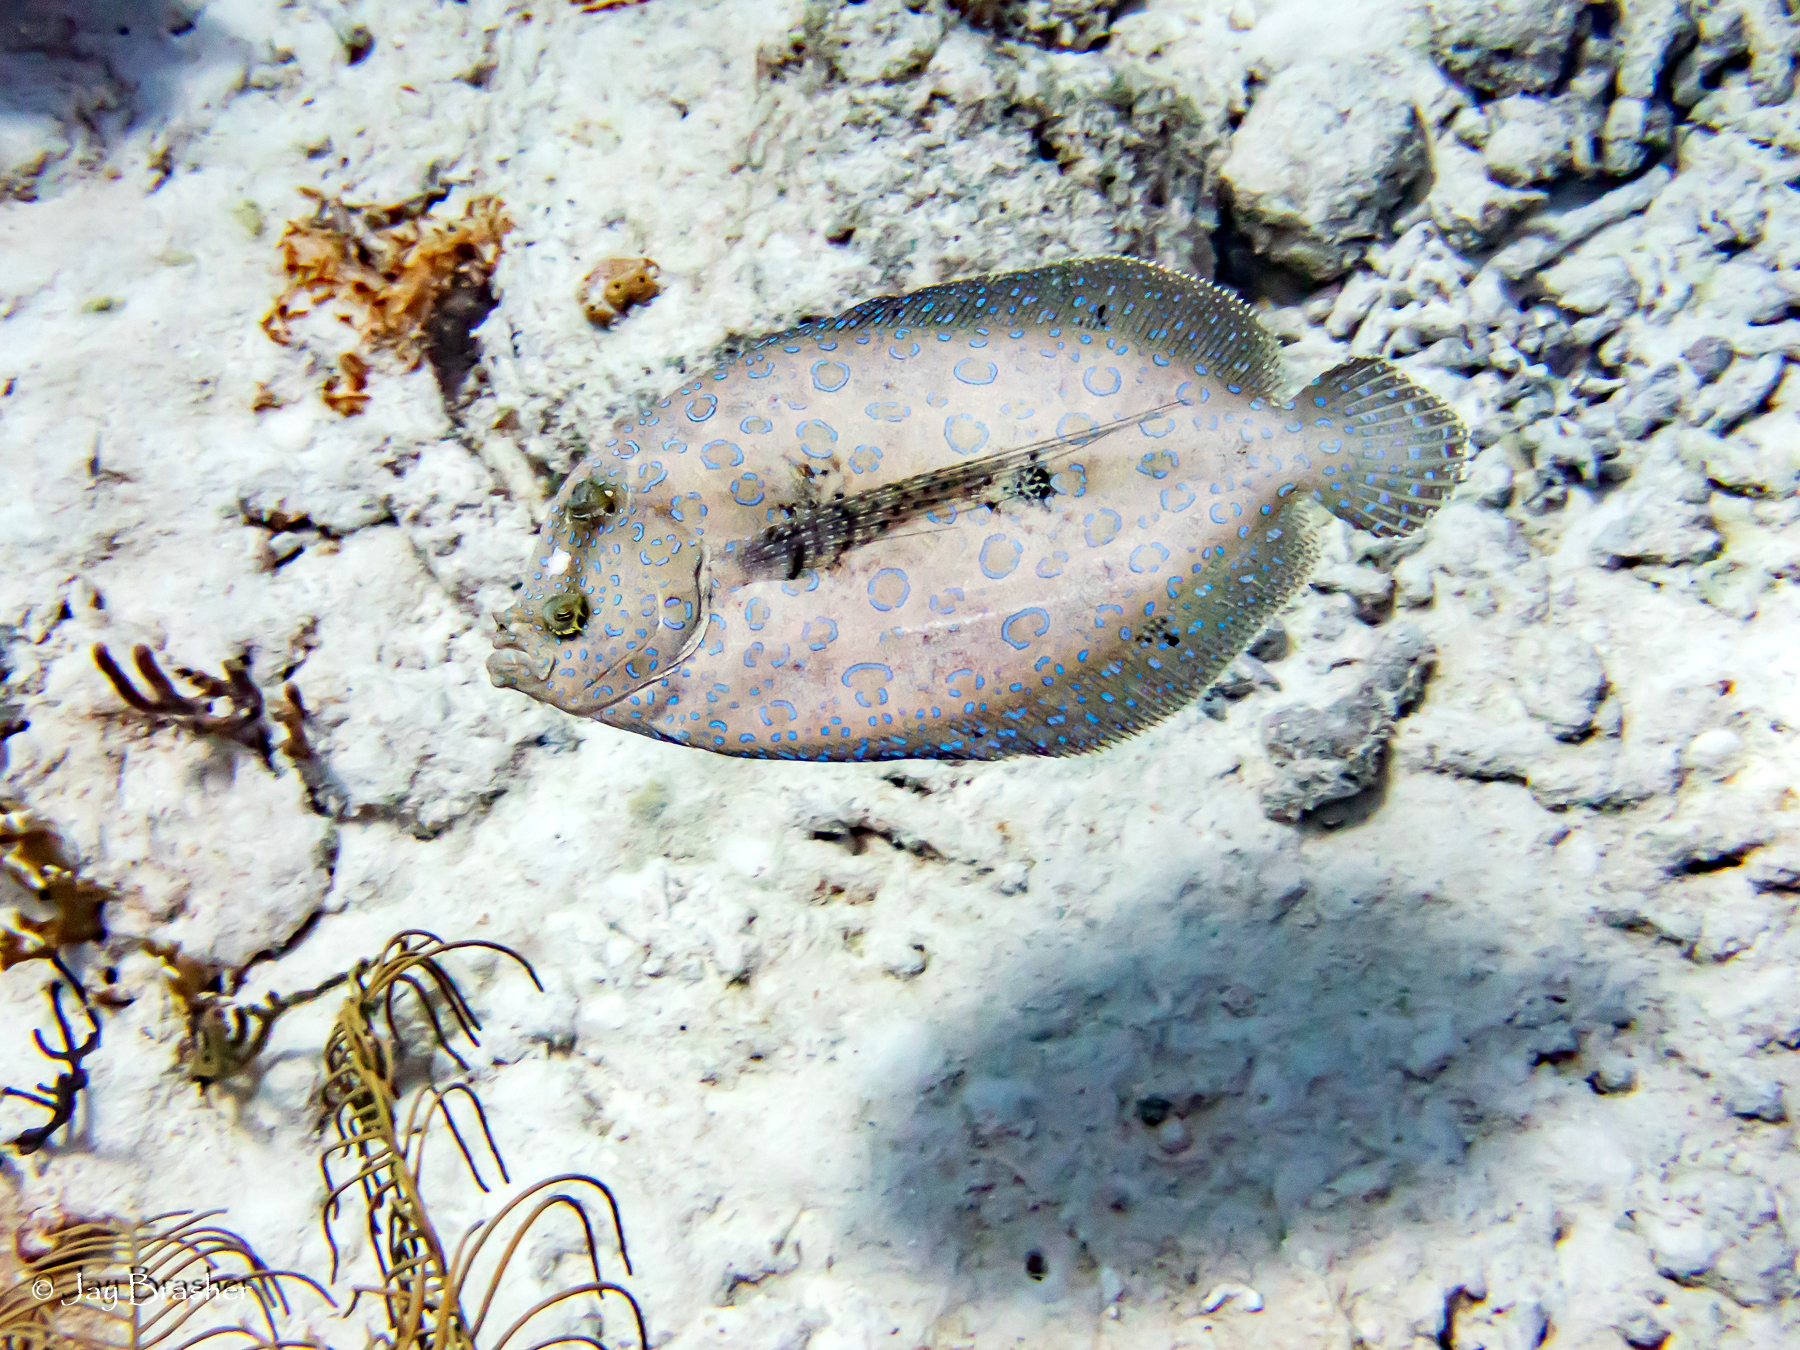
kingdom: Animalia
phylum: Chordata
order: Pleuronectiformes
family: Bothidae
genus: Bothus
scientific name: Bothus lunatus
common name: Peacock flounder
